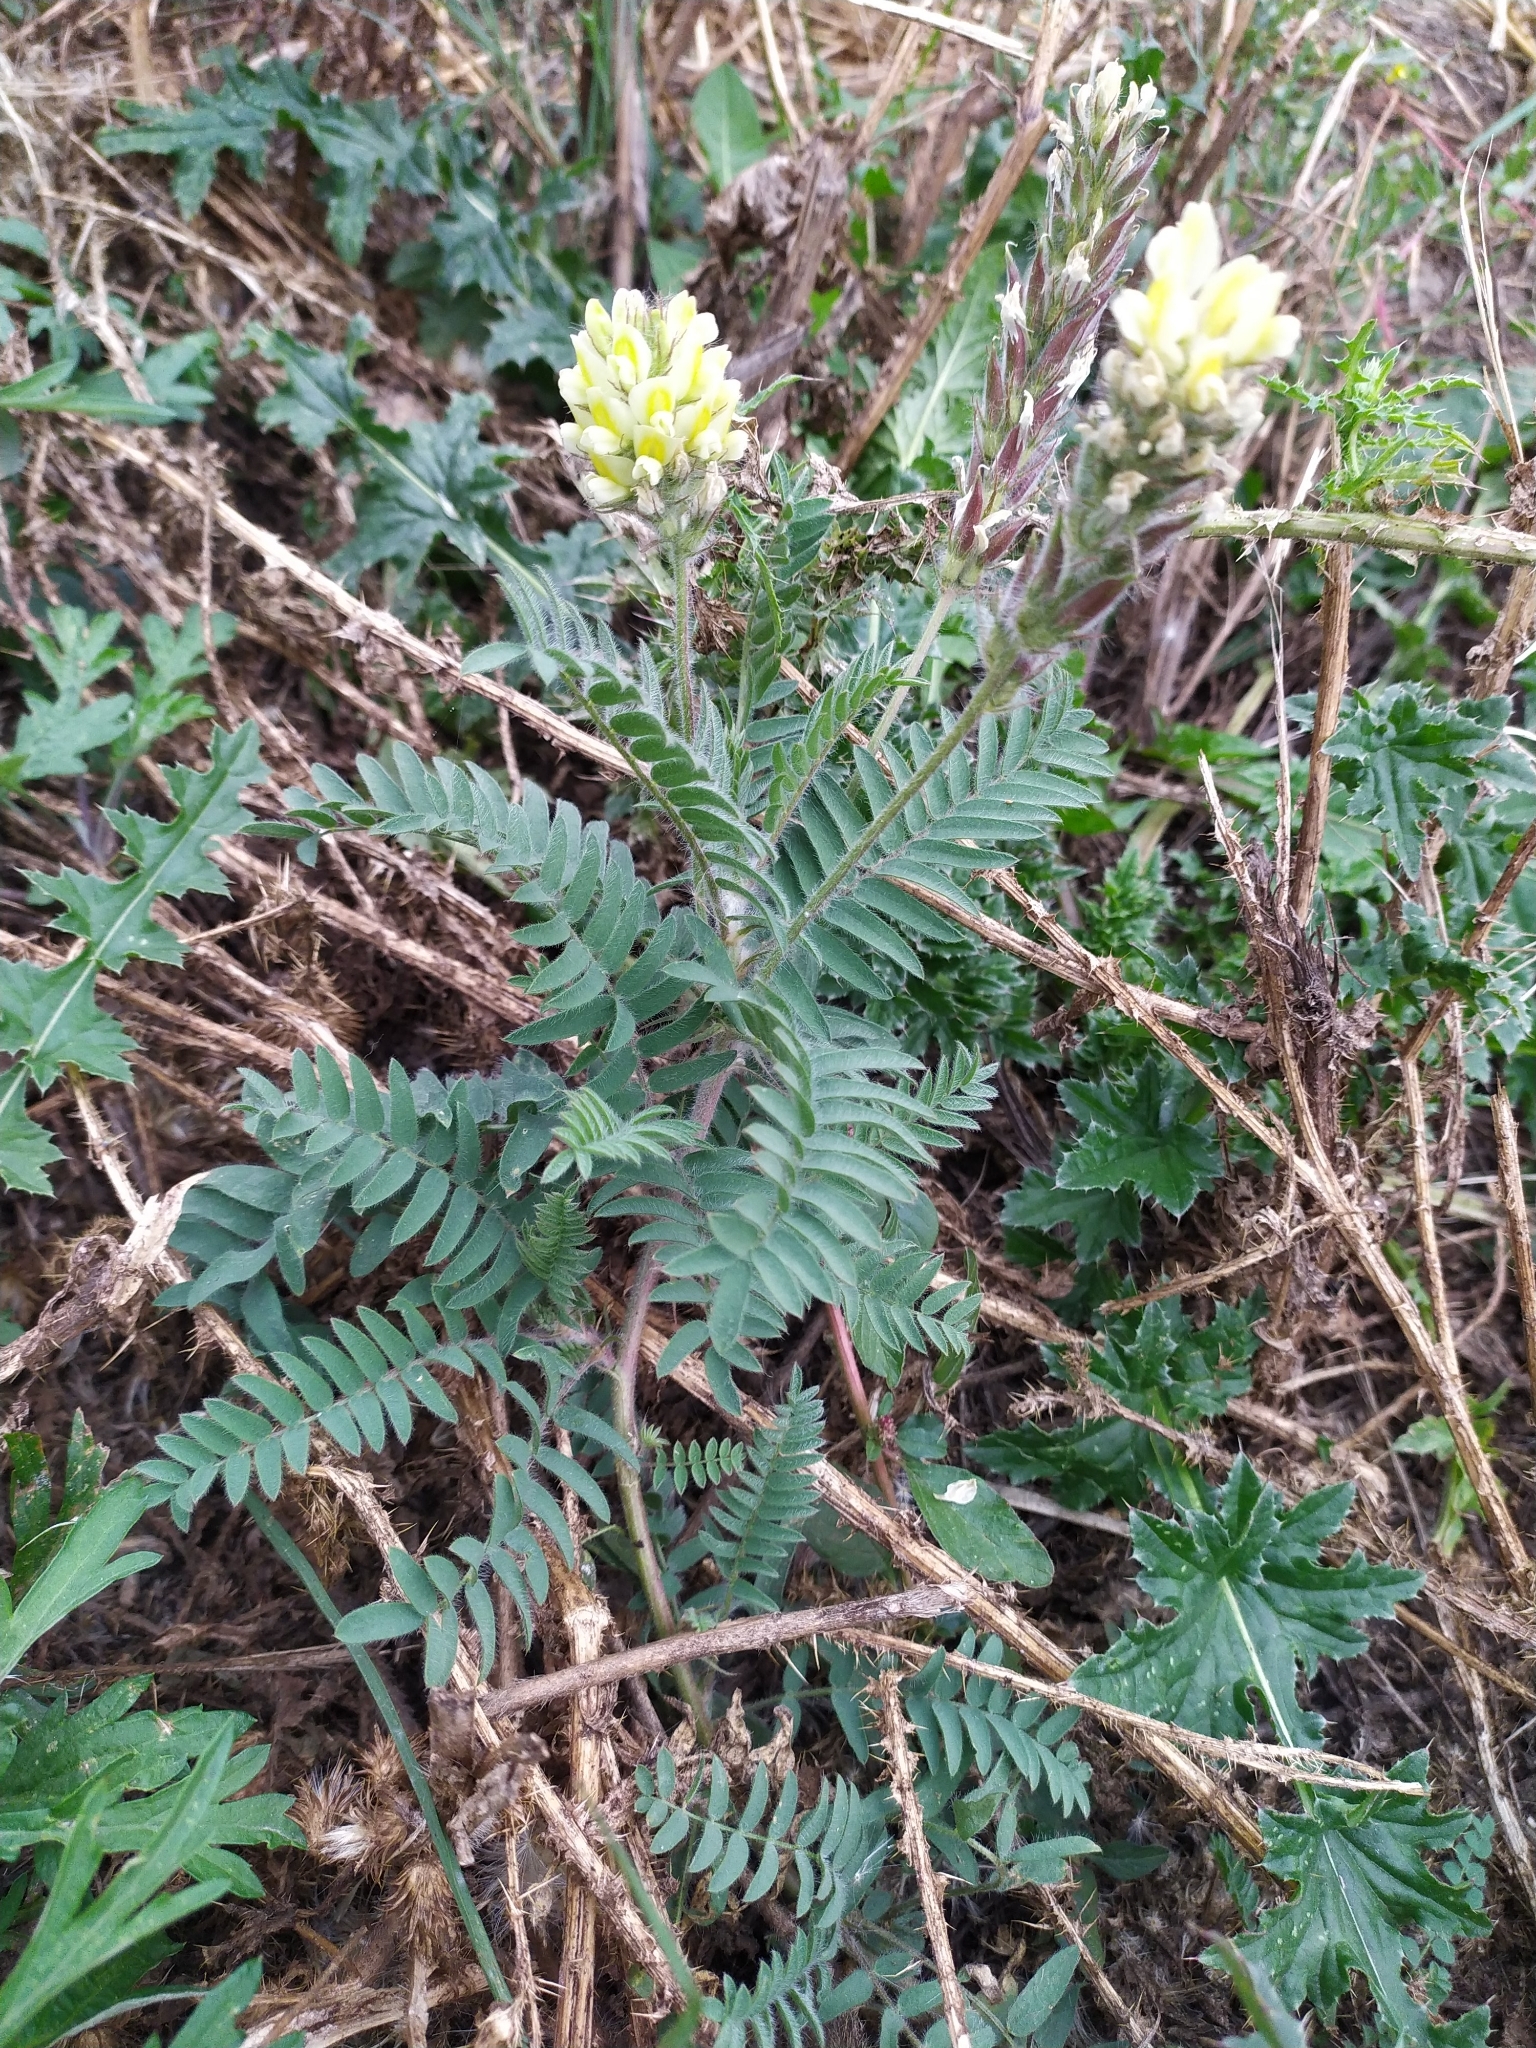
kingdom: Plantae
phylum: Tracheophyta
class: Magnoliopsida
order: Fabales
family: Fabaceae
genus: Oxytropis
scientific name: Oxytropis pilosa
